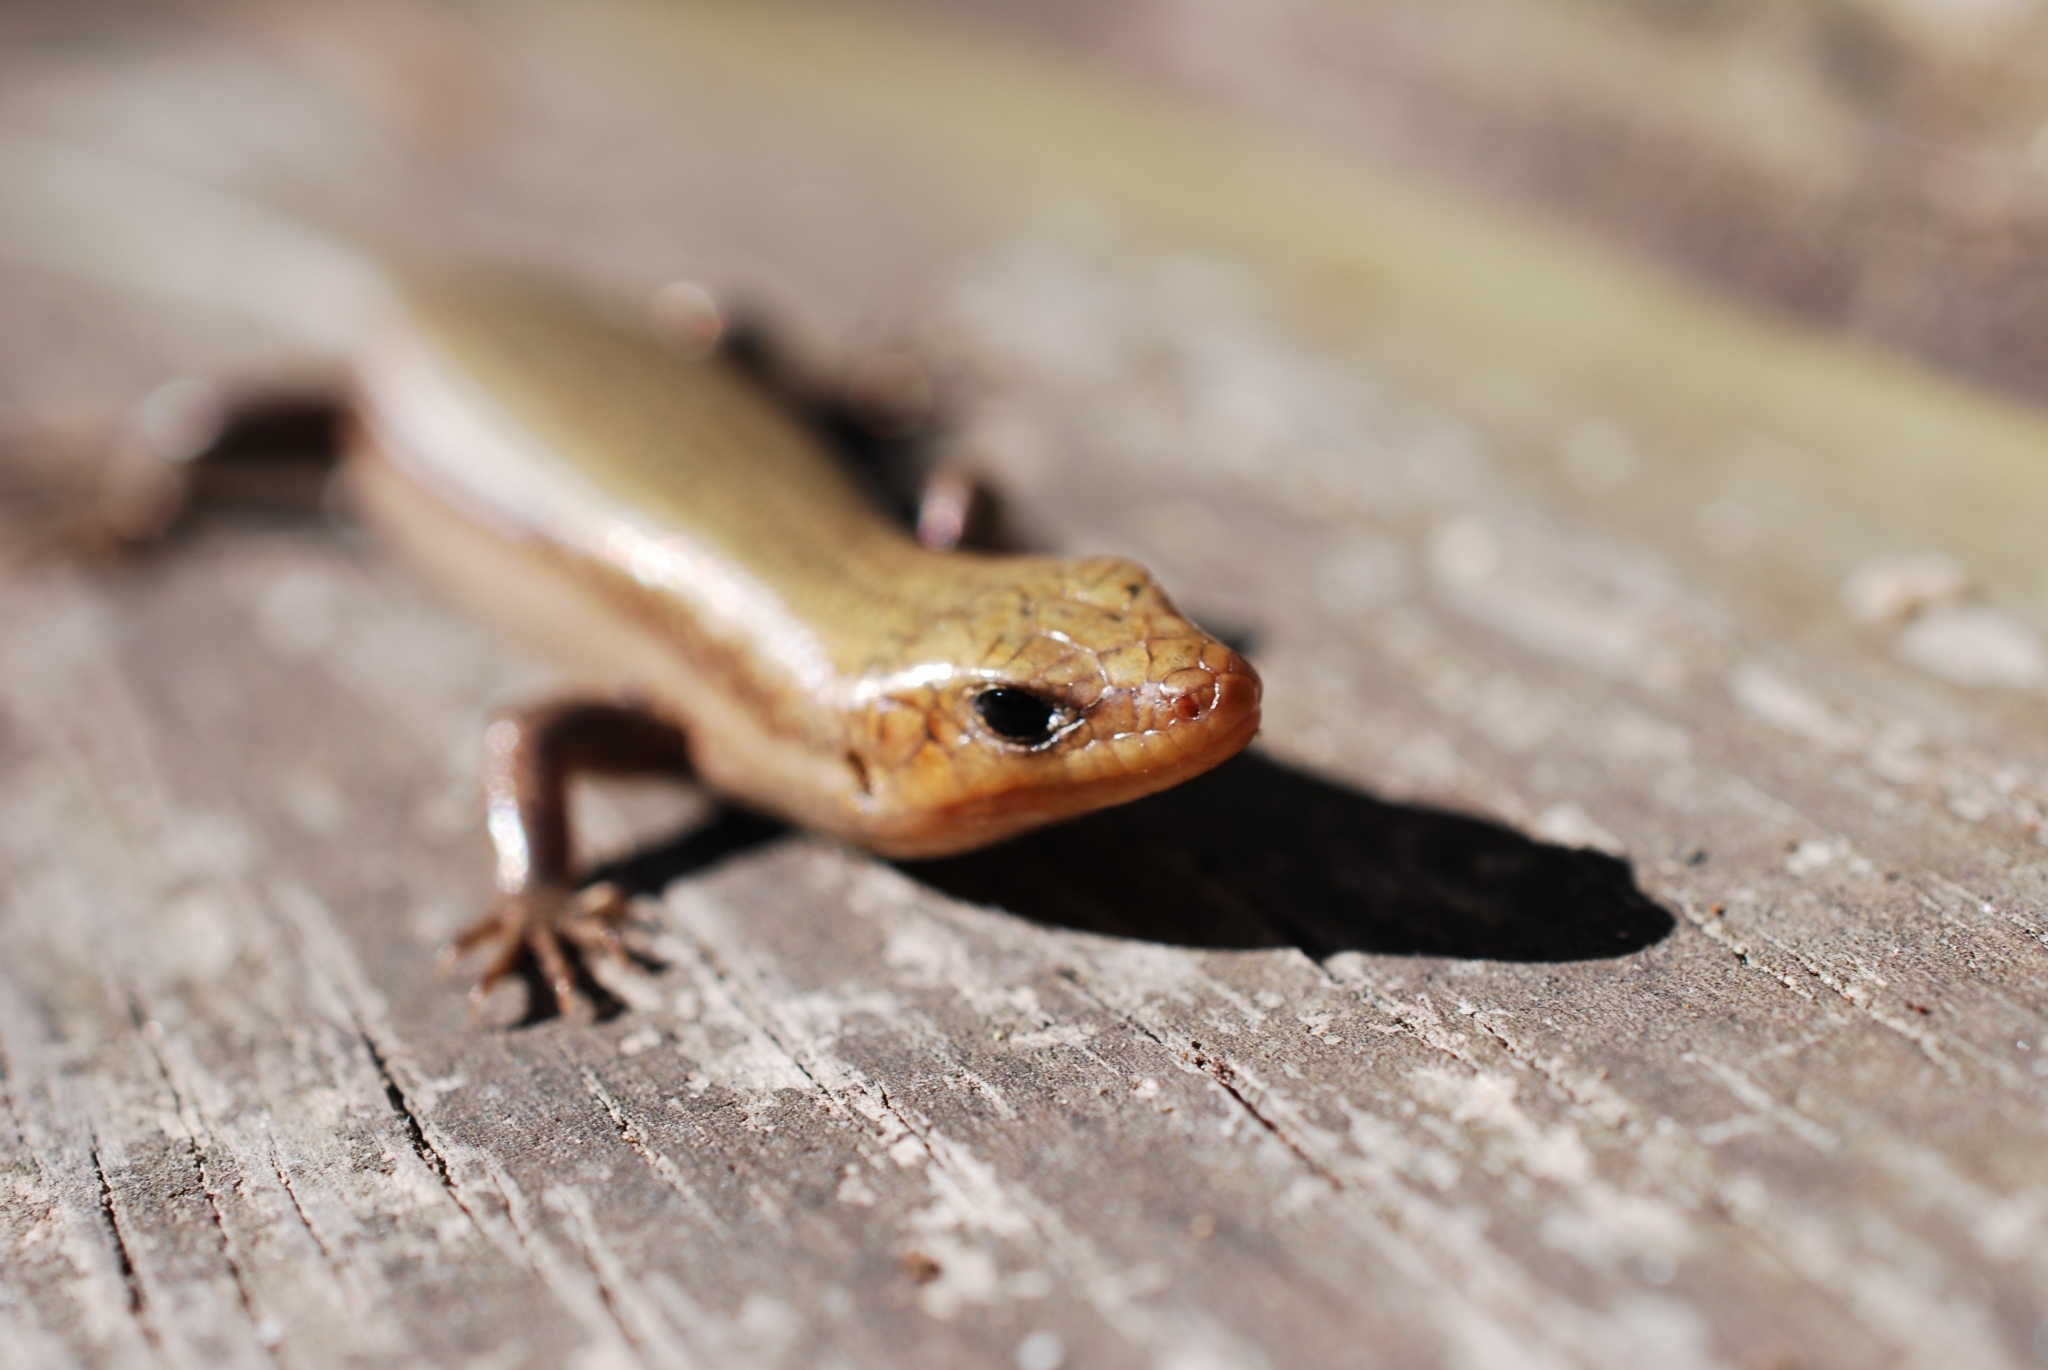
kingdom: Animalia
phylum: Chordata
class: Squamata
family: Scincidae
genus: Plestiodon
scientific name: Plestiodon fasciatus
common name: Five-lined skink
